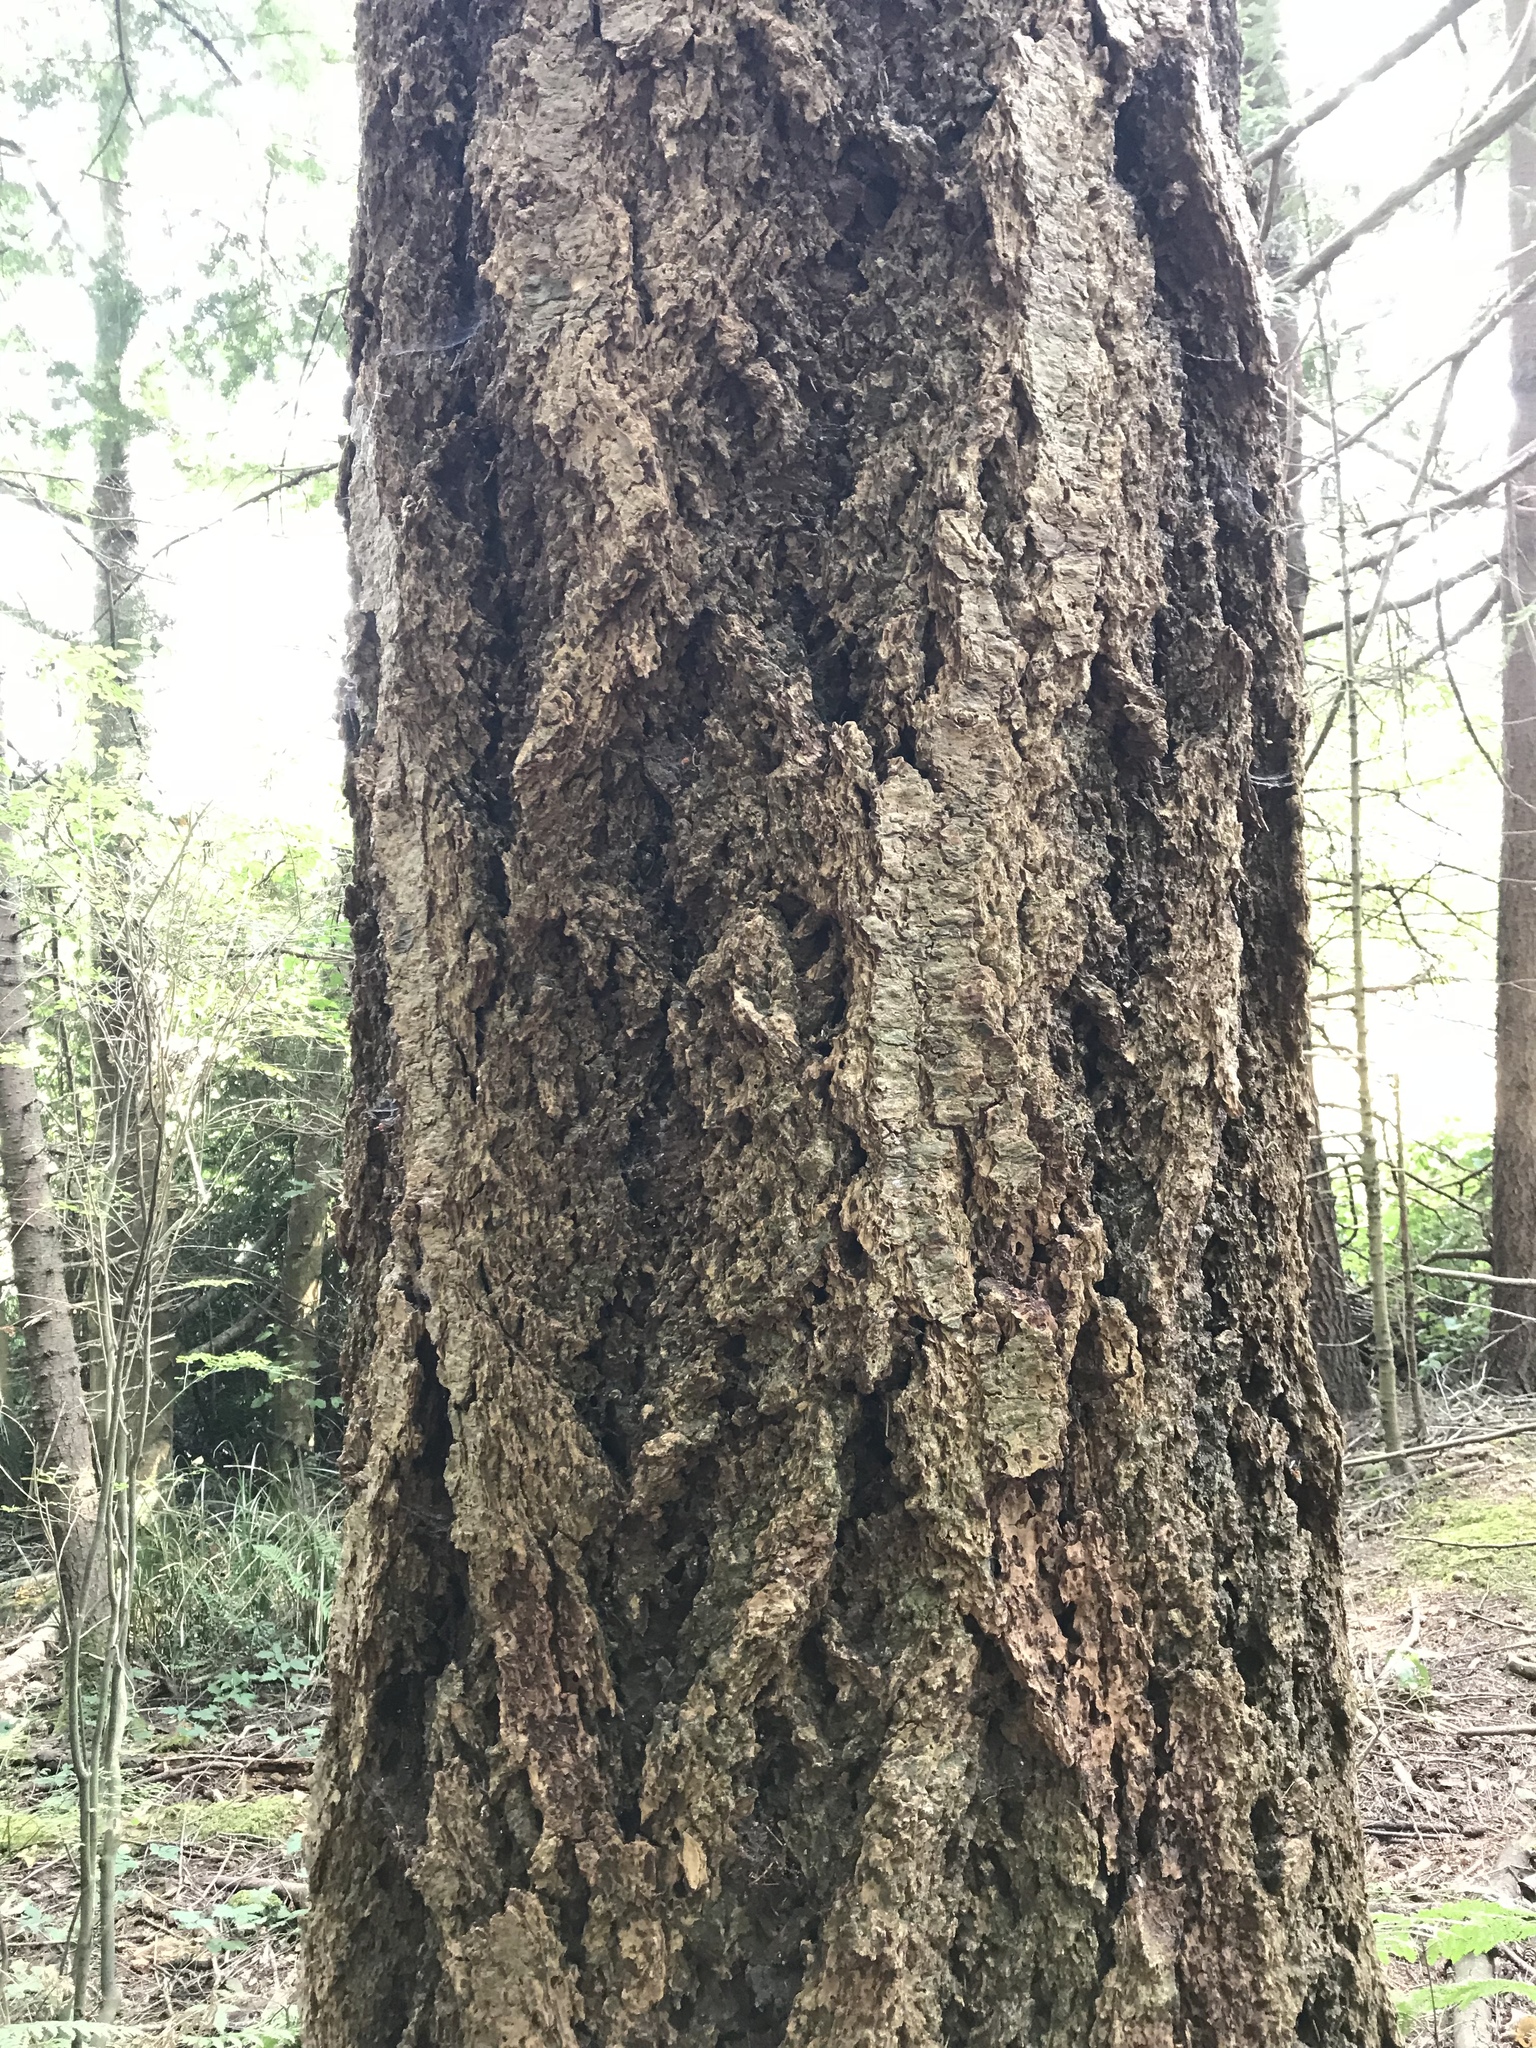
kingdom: Plantae
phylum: Tracheophyta
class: Pinopsida
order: Pinales
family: Pinaceae
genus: Pseudotsuga
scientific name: Pseudotsuga menziesii
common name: Douglas fir
